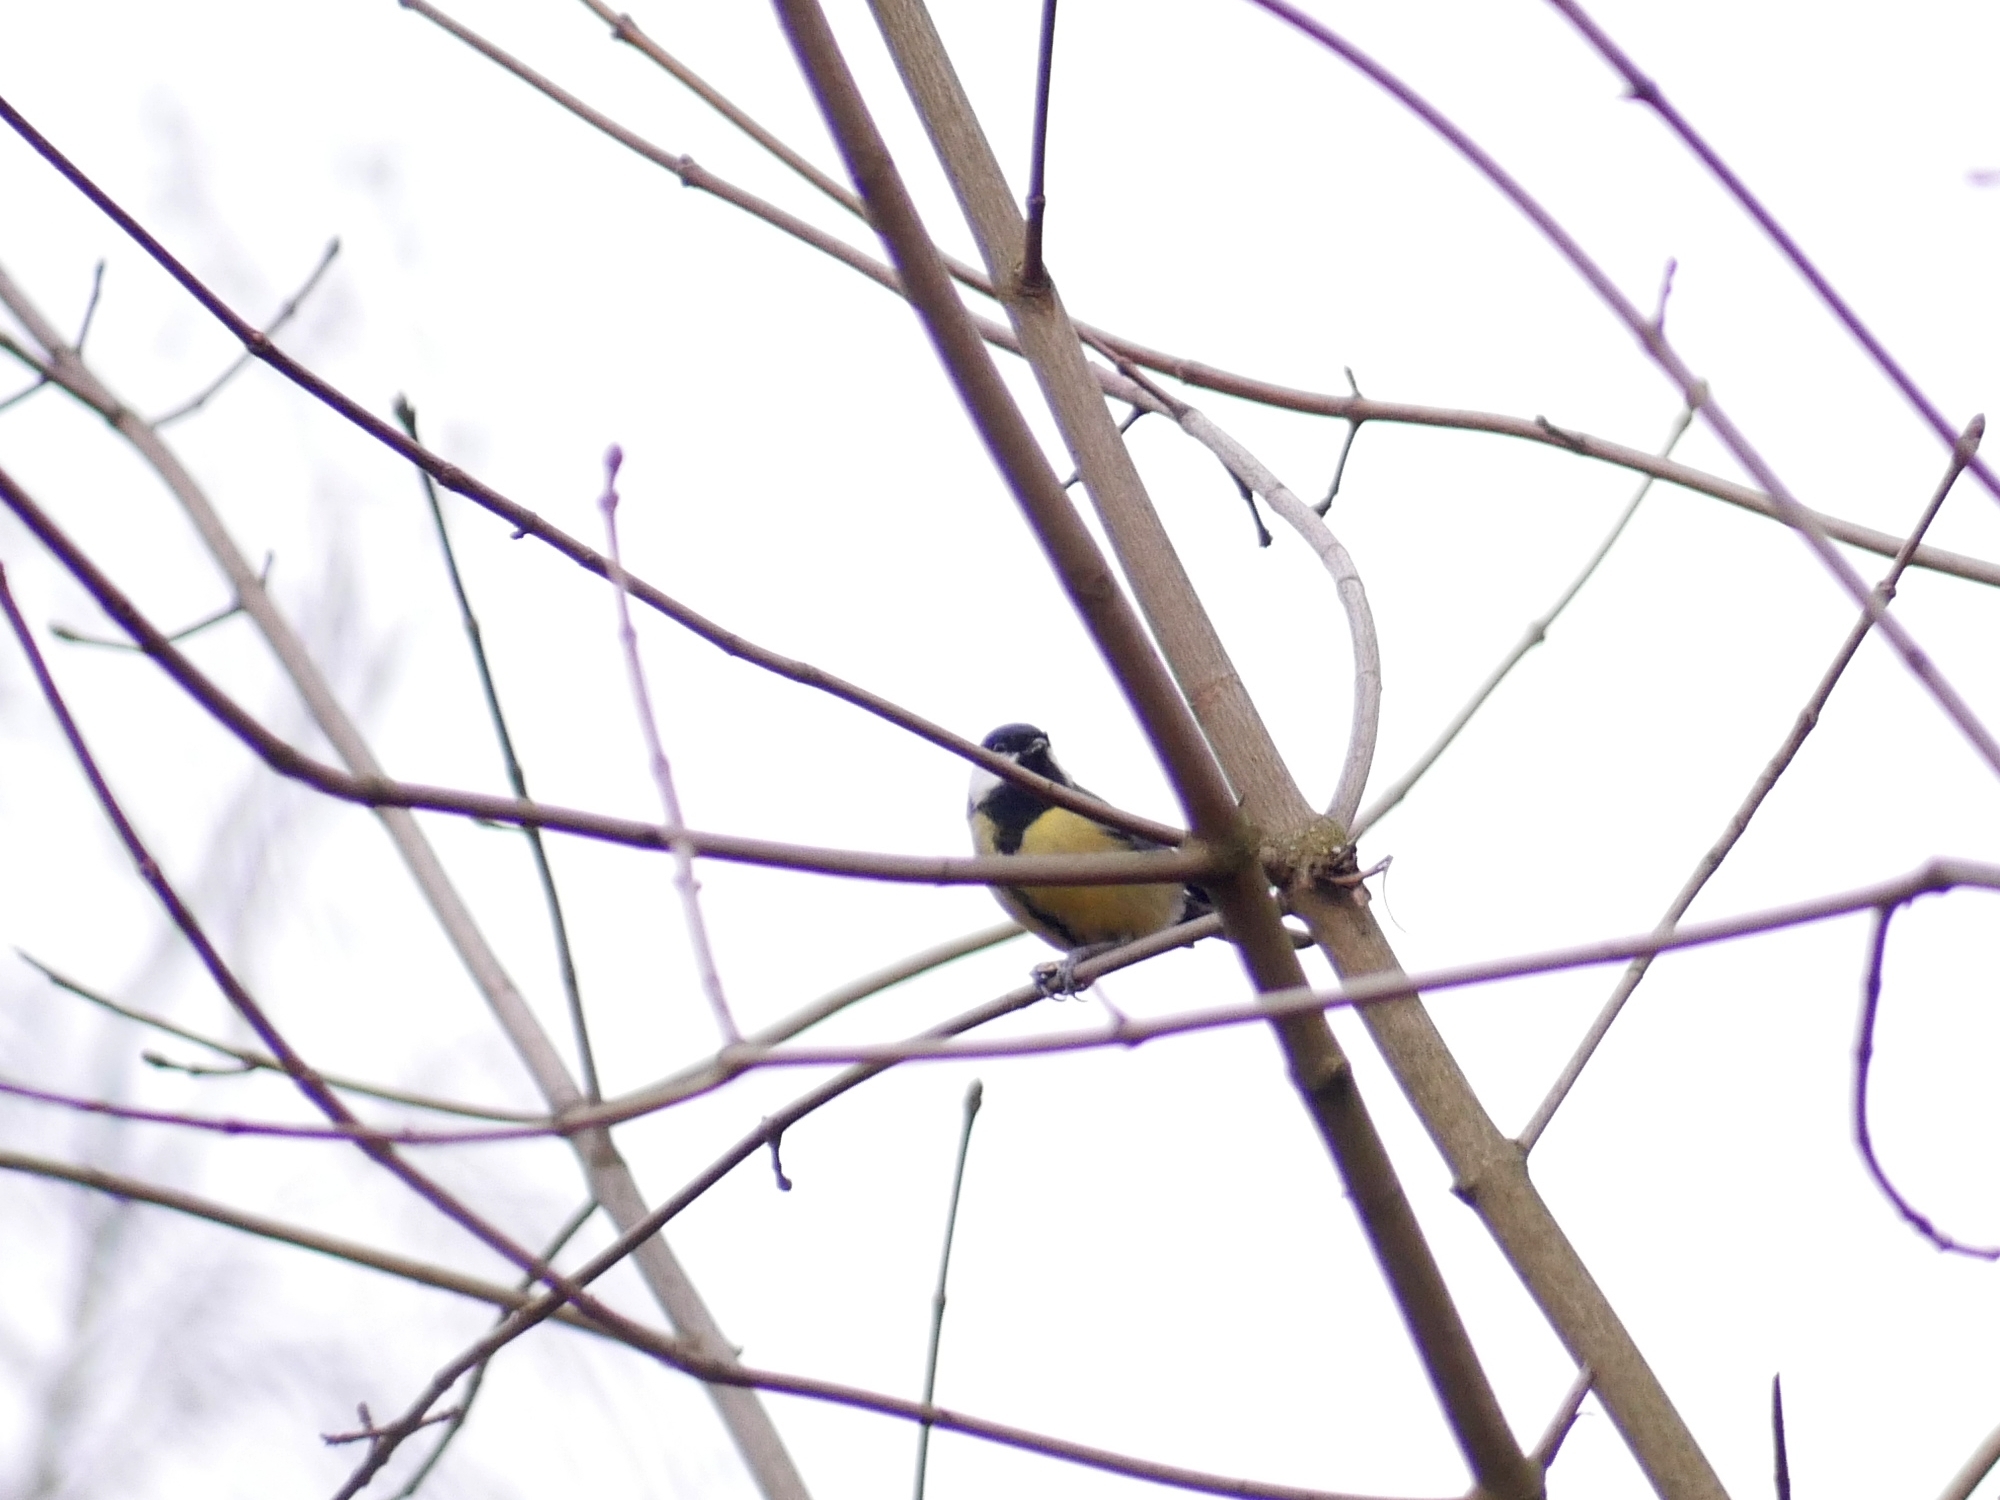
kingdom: Animalia
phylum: Chordata
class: Aves
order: Passeriformes
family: Paridae
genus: Parus
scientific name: Parus major
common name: Great tit
